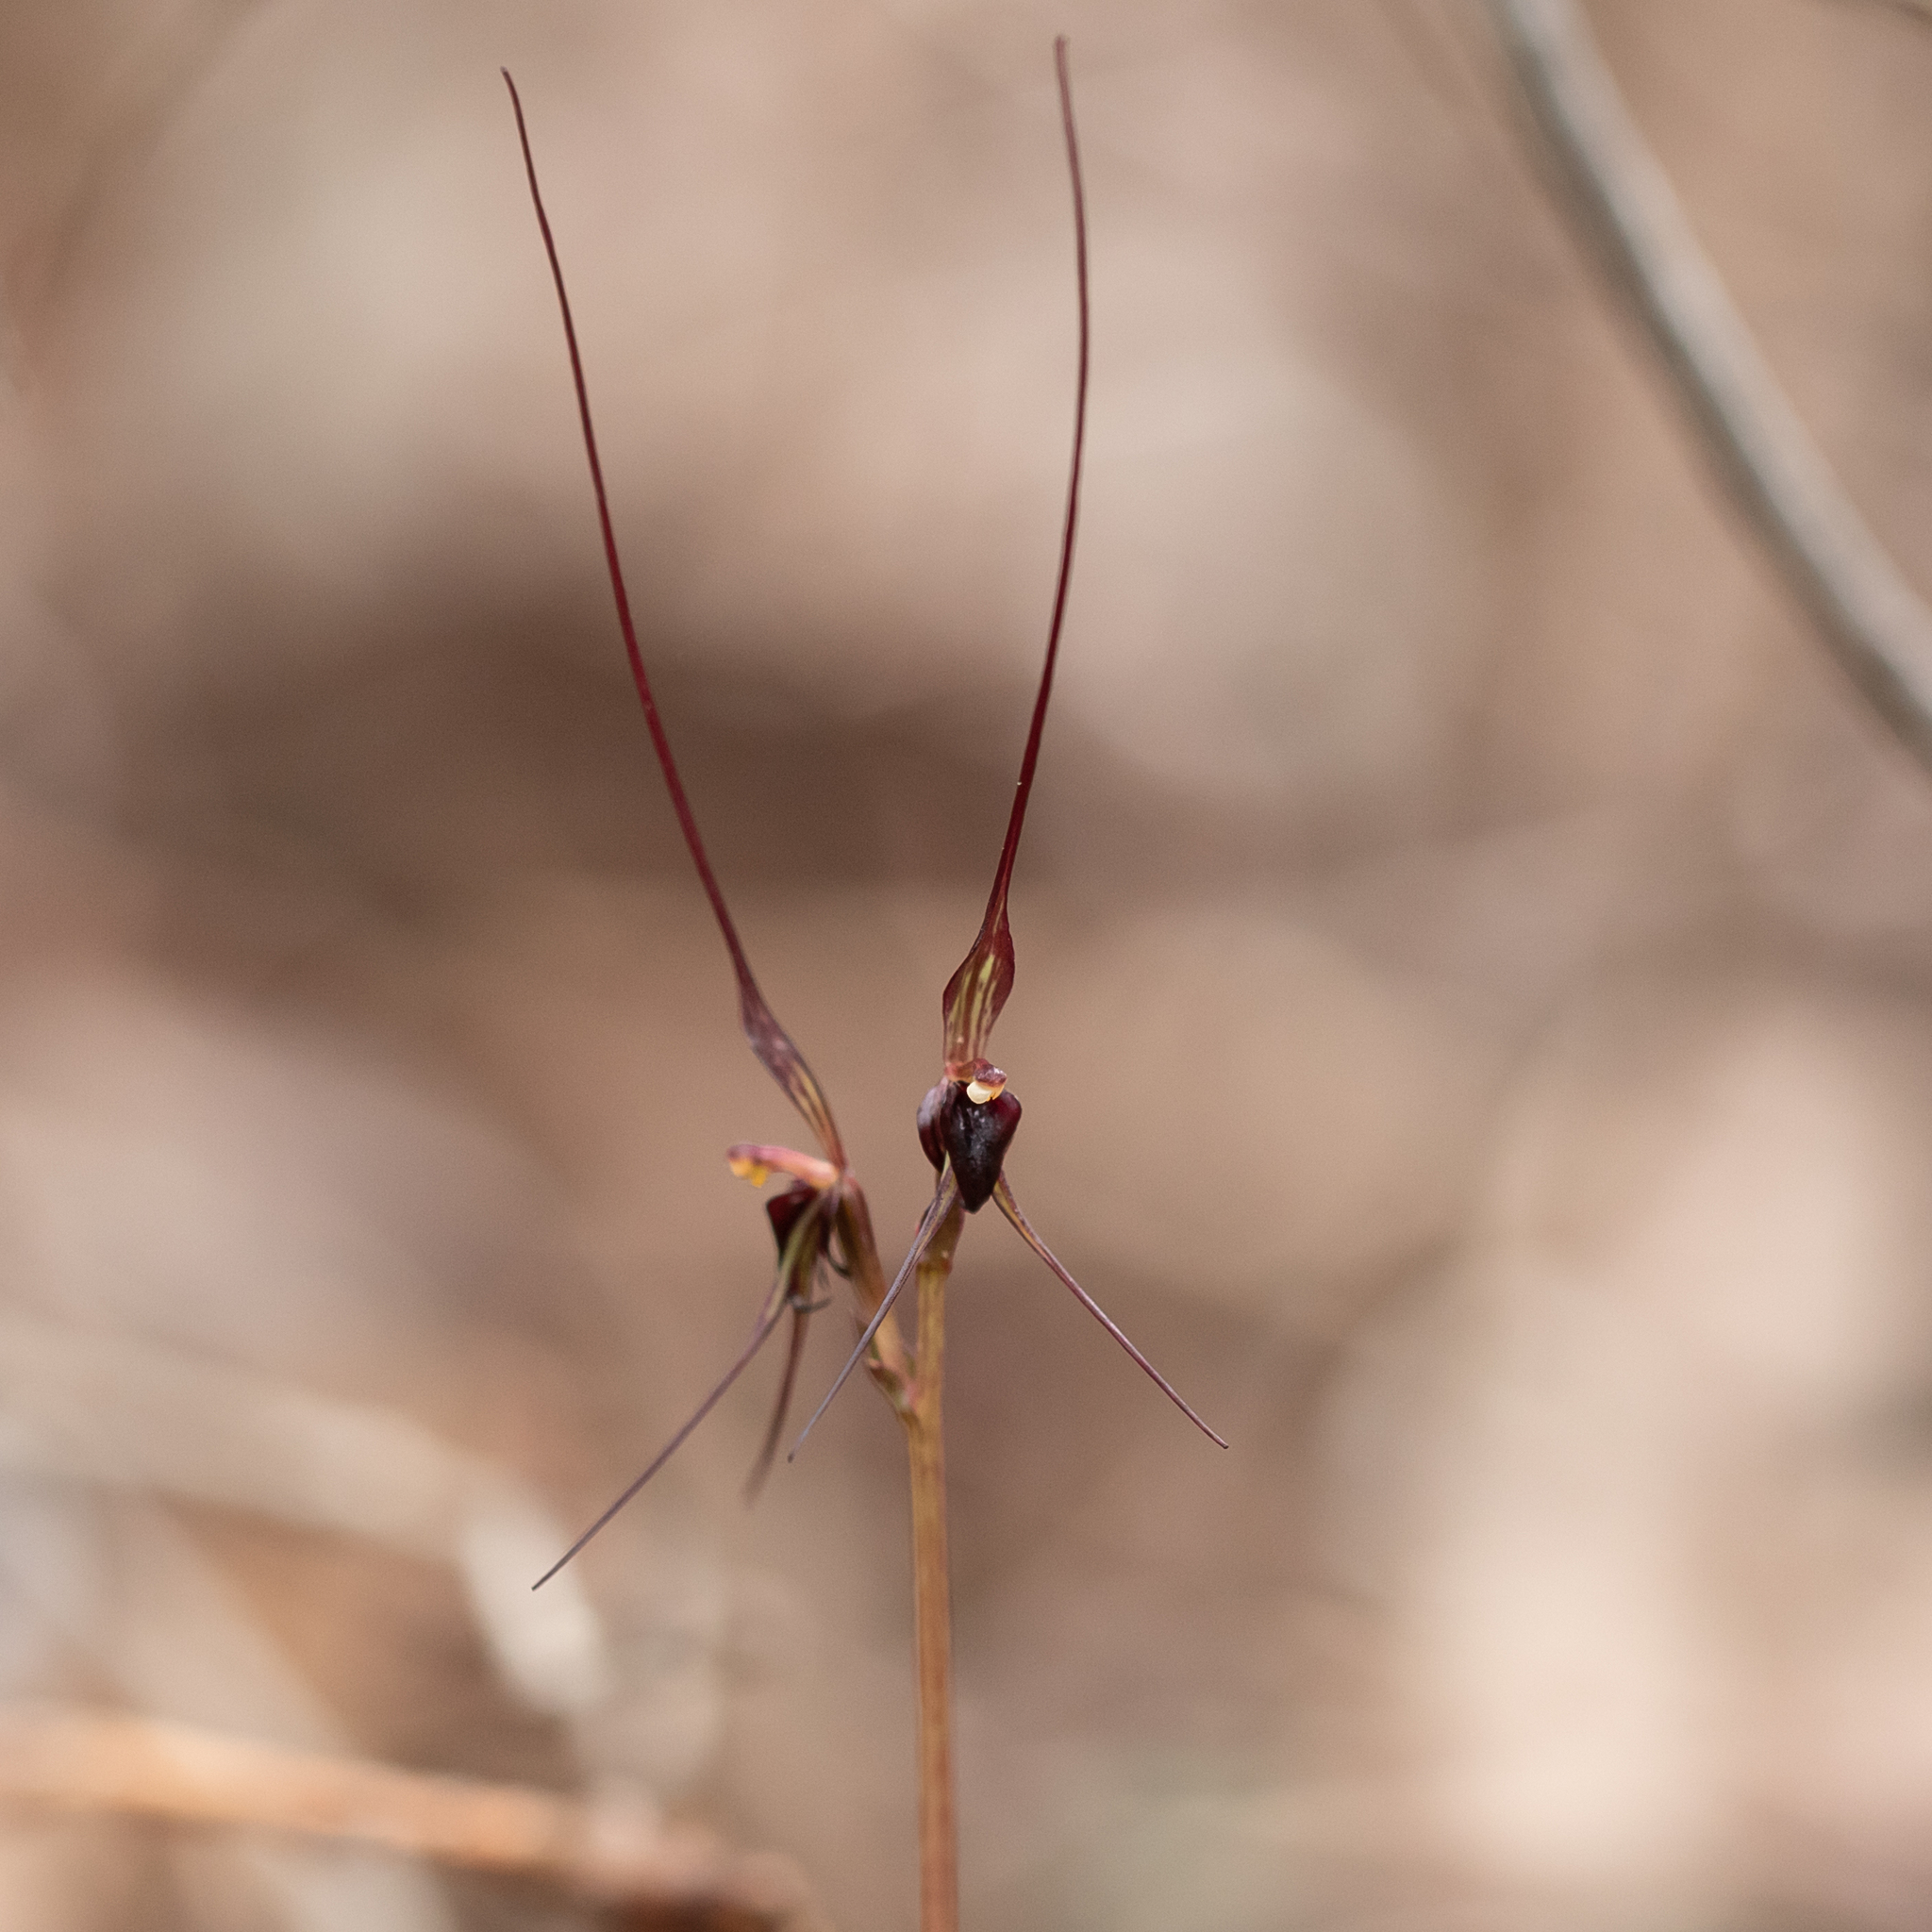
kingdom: Plantae
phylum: Tracheophyta
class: Liliopsida
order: Asparagales
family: Orchidaceae
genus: Acianthus
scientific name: Acianthus caudatus
